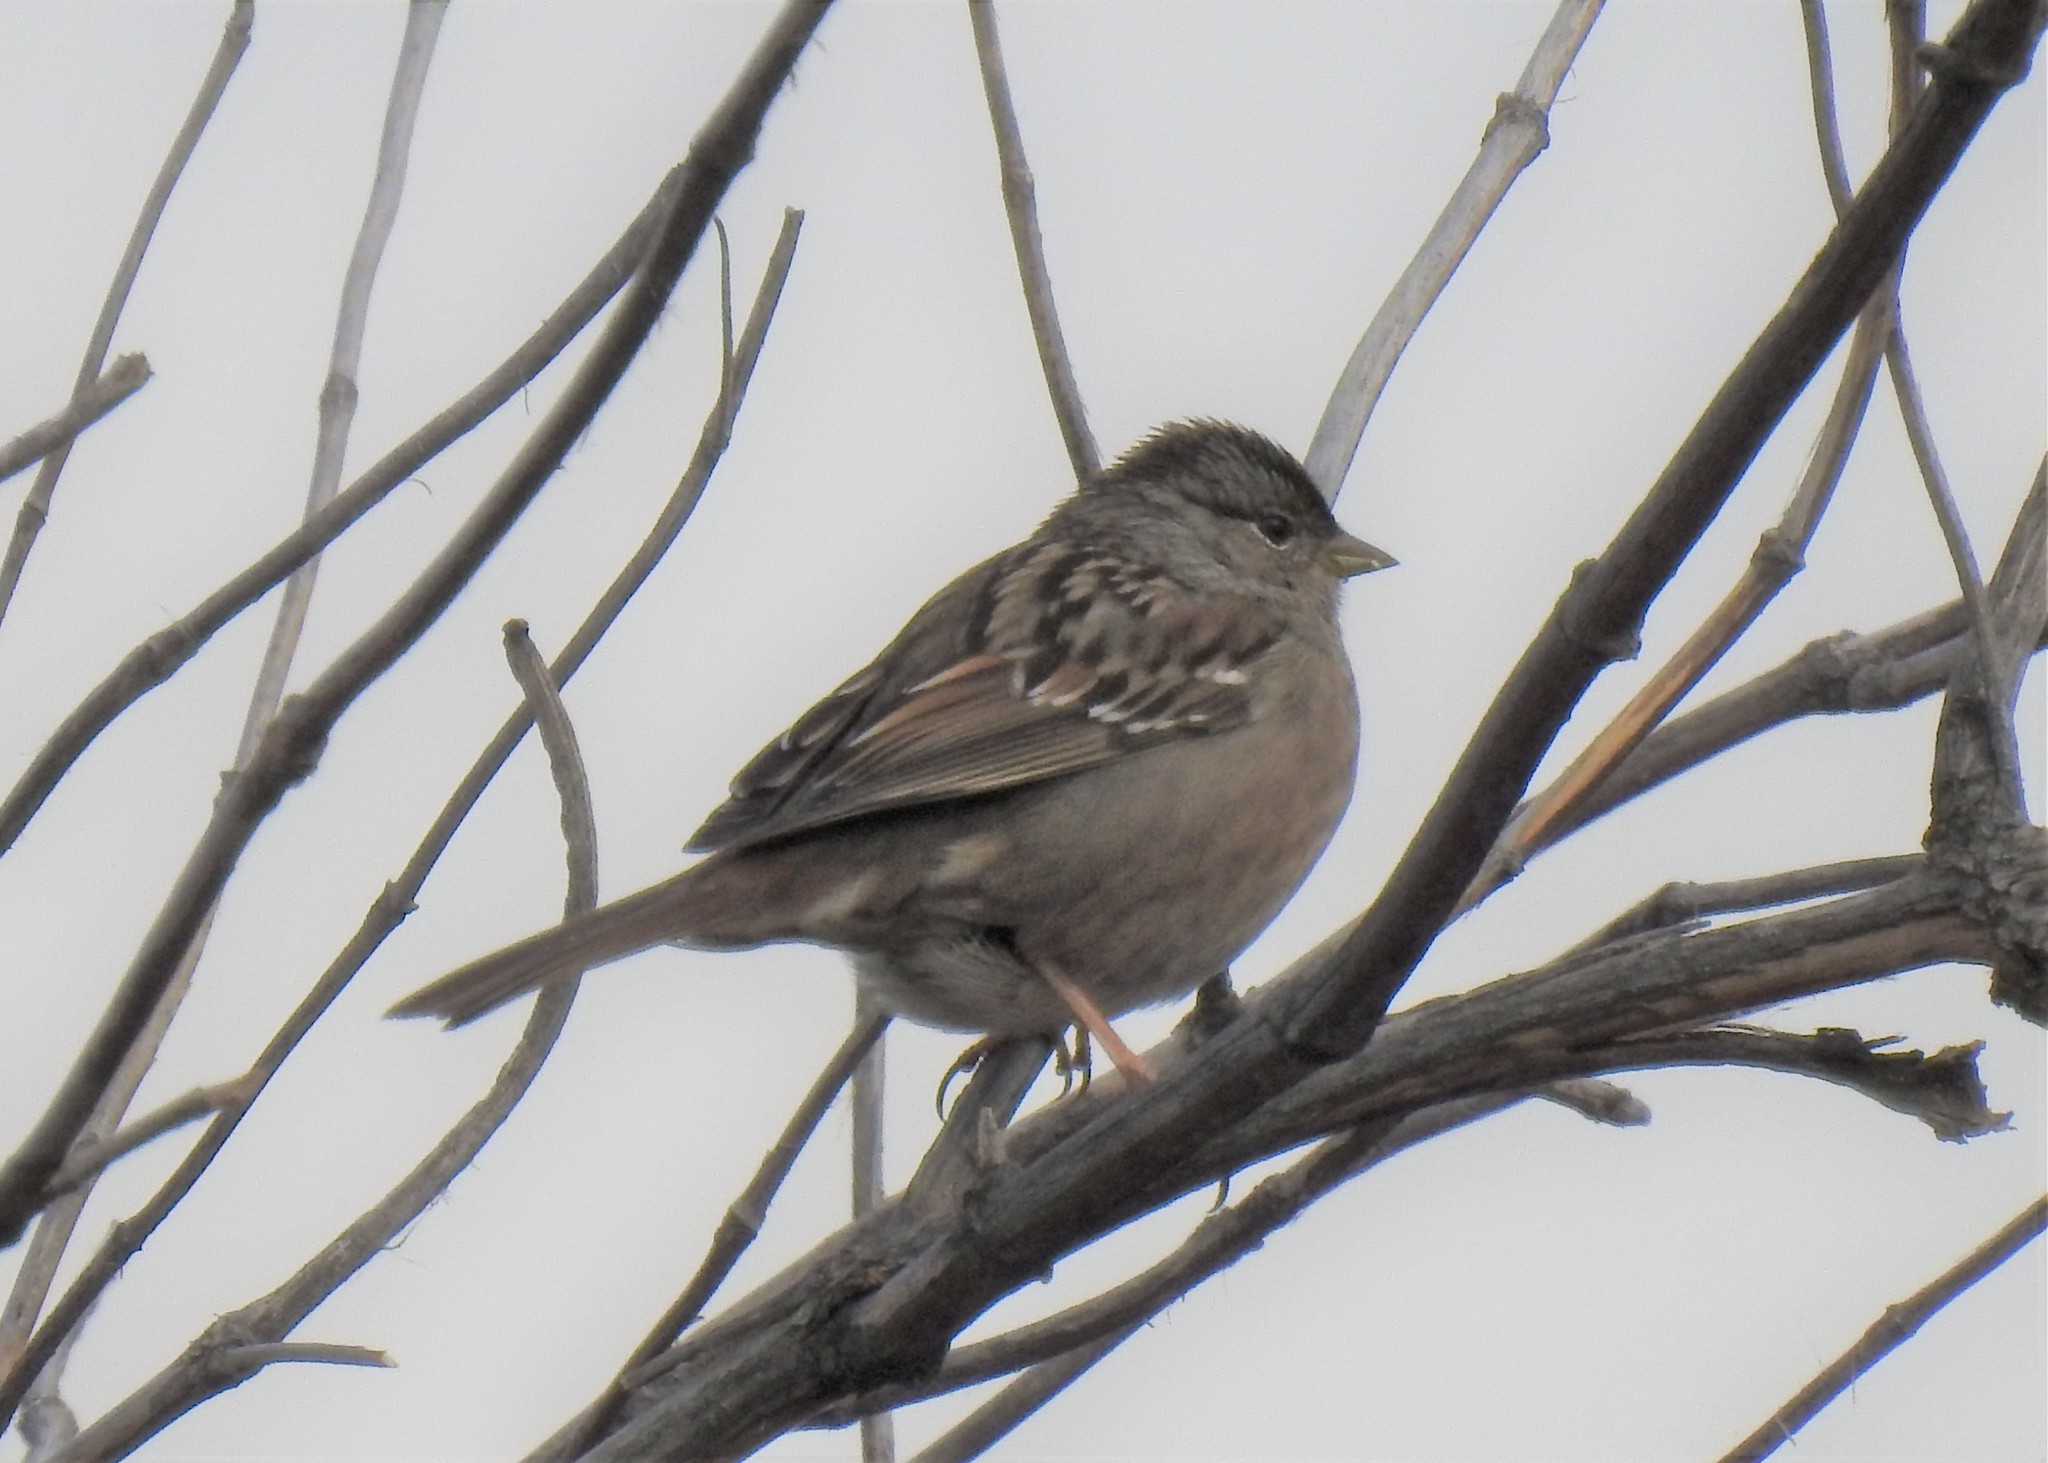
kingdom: Animalia
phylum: Chordata
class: Aves
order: Passeriformes
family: Passerellidae
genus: Zonotrichia
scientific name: Zonotrichia atricapilla
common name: Golden-crowned sparrow
